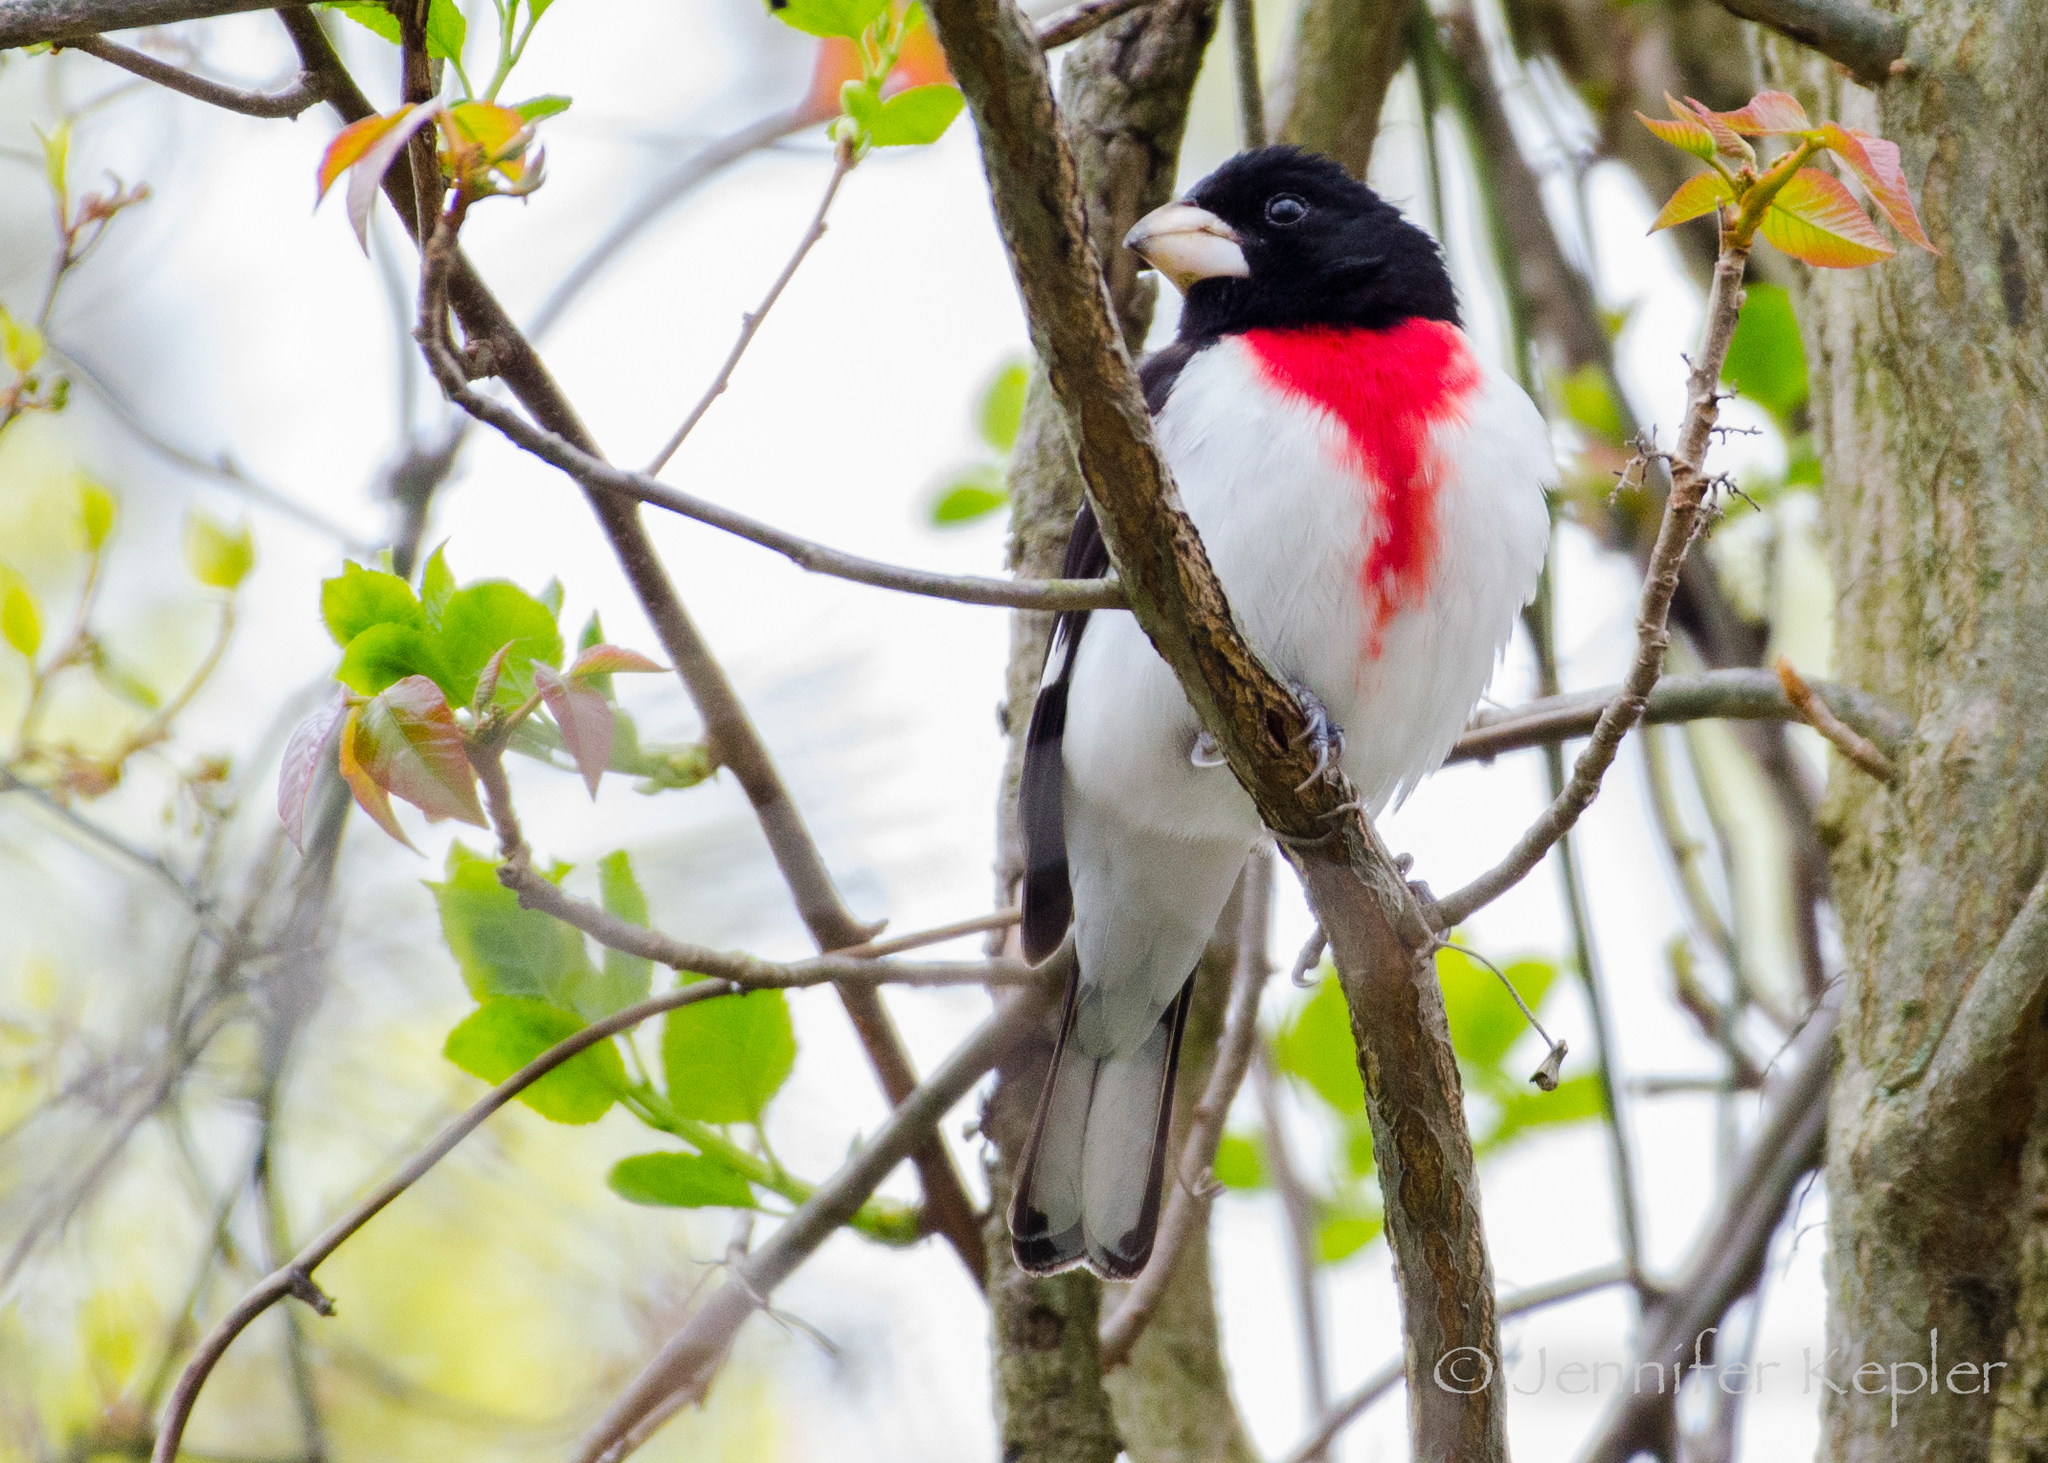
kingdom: Animalia
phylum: Chordata
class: Aves
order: Passeriformes
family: Cardinalidae
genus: Pheucticus
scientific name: Pheucticus ludovicianus
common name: Rose-breasted grosbeak
